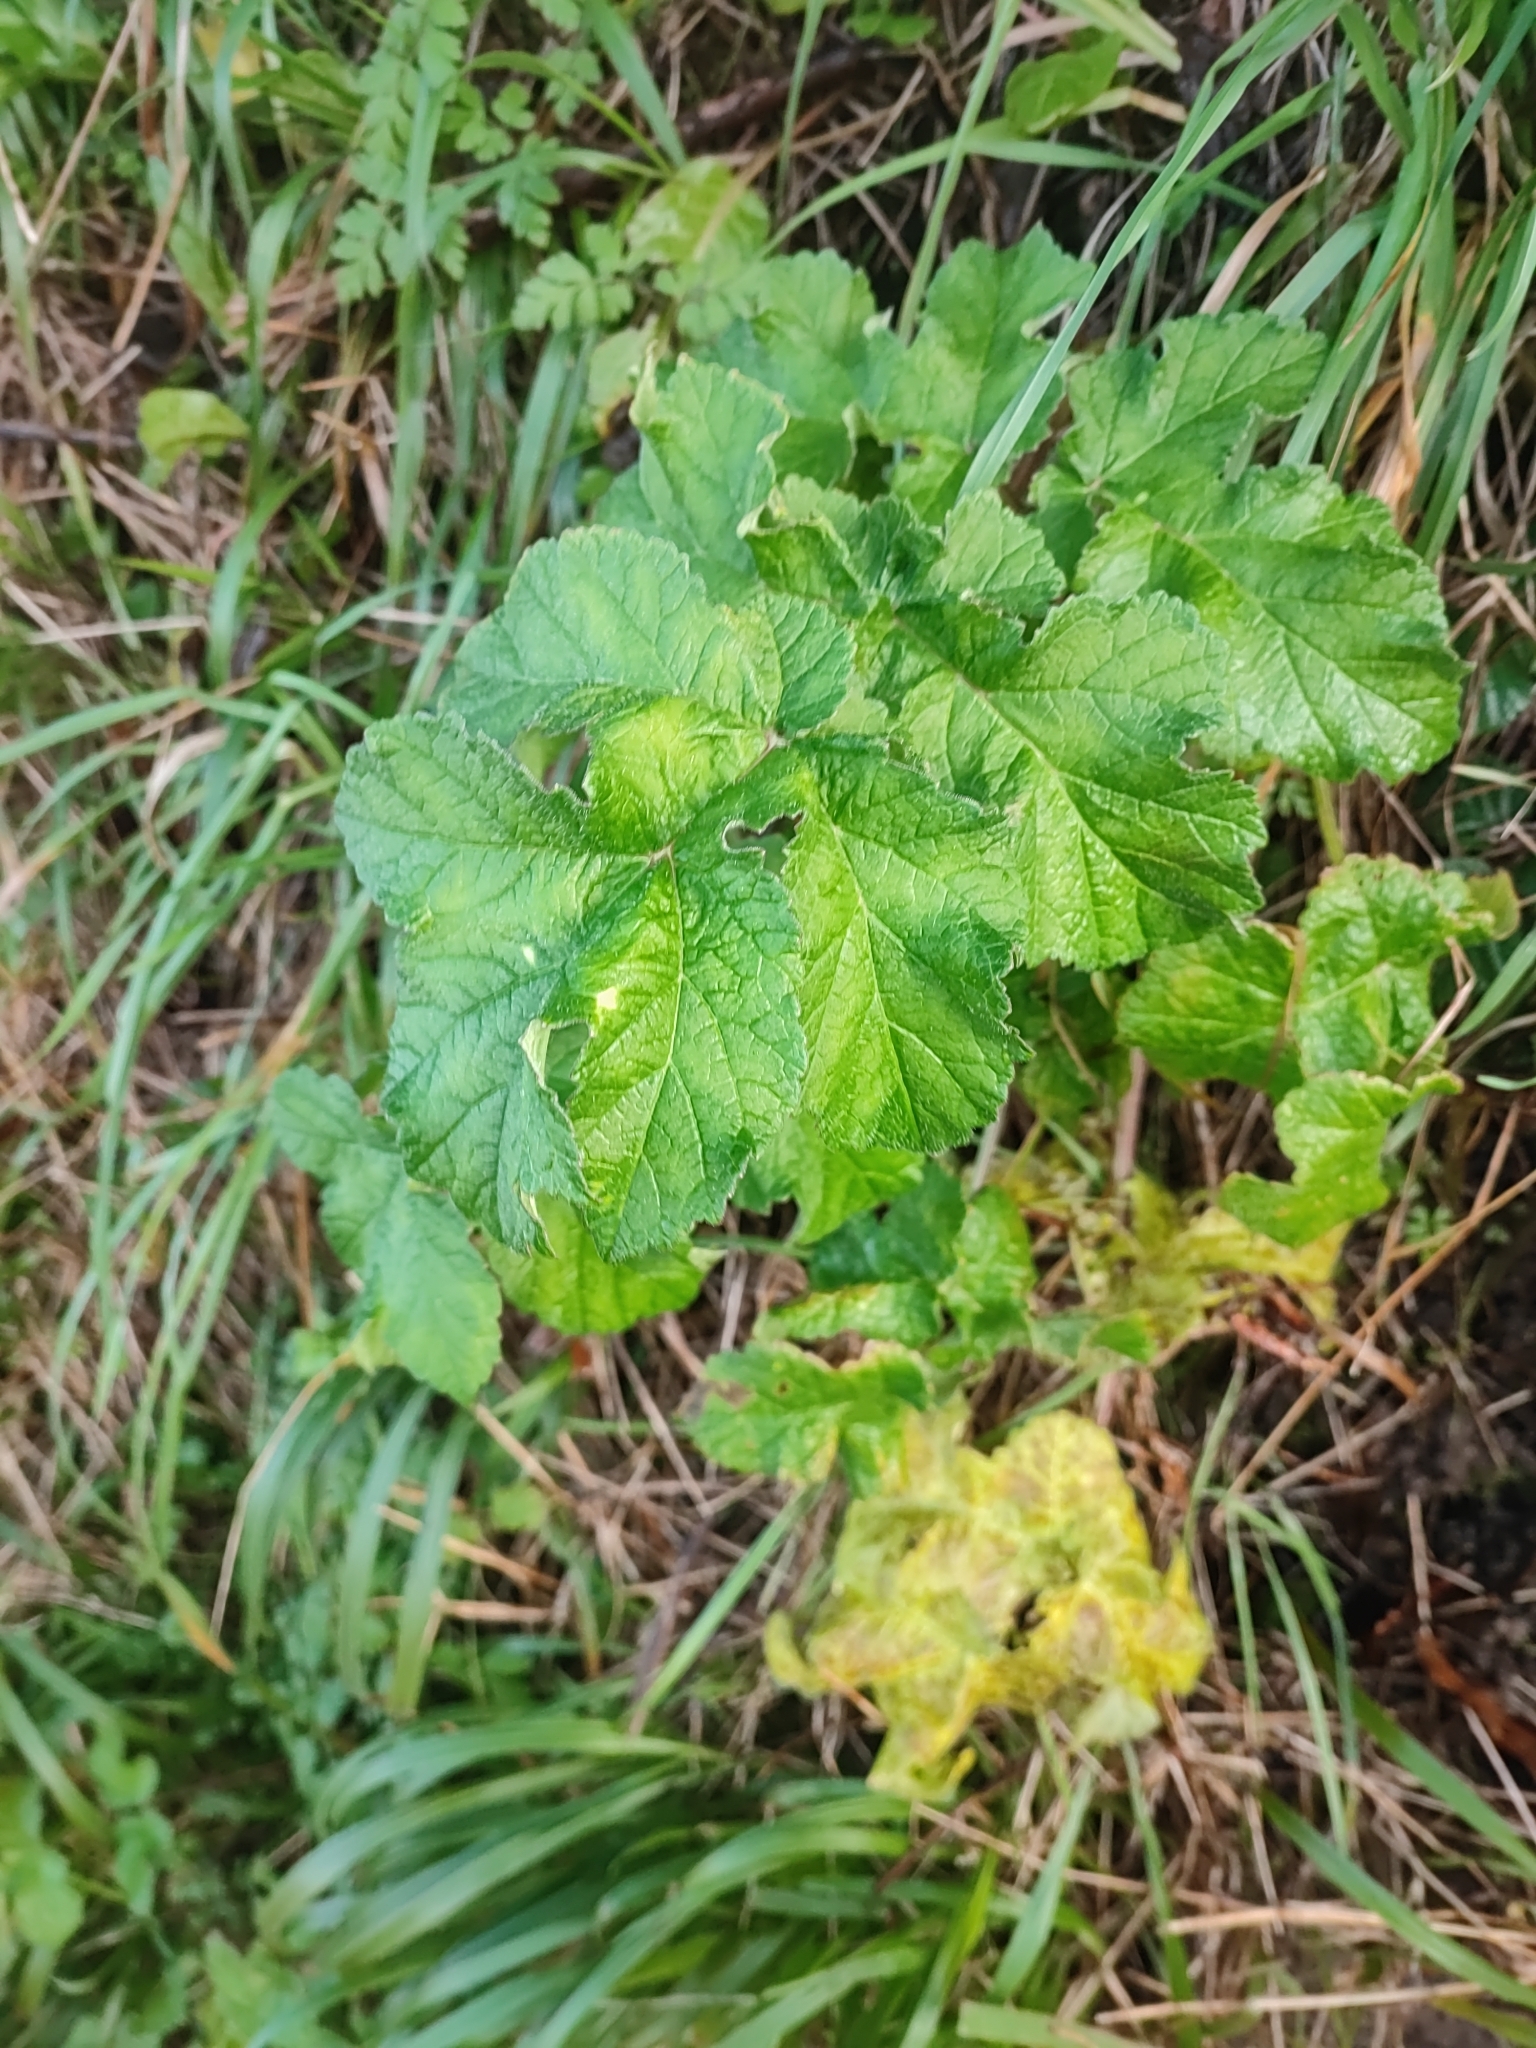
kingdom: Plantae
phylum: Tracheophyta
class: Magnoliopsida
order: Apiales
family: Apiaceae
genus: Heracleum
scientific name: Heracleum sphondylium
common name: Hogweed
